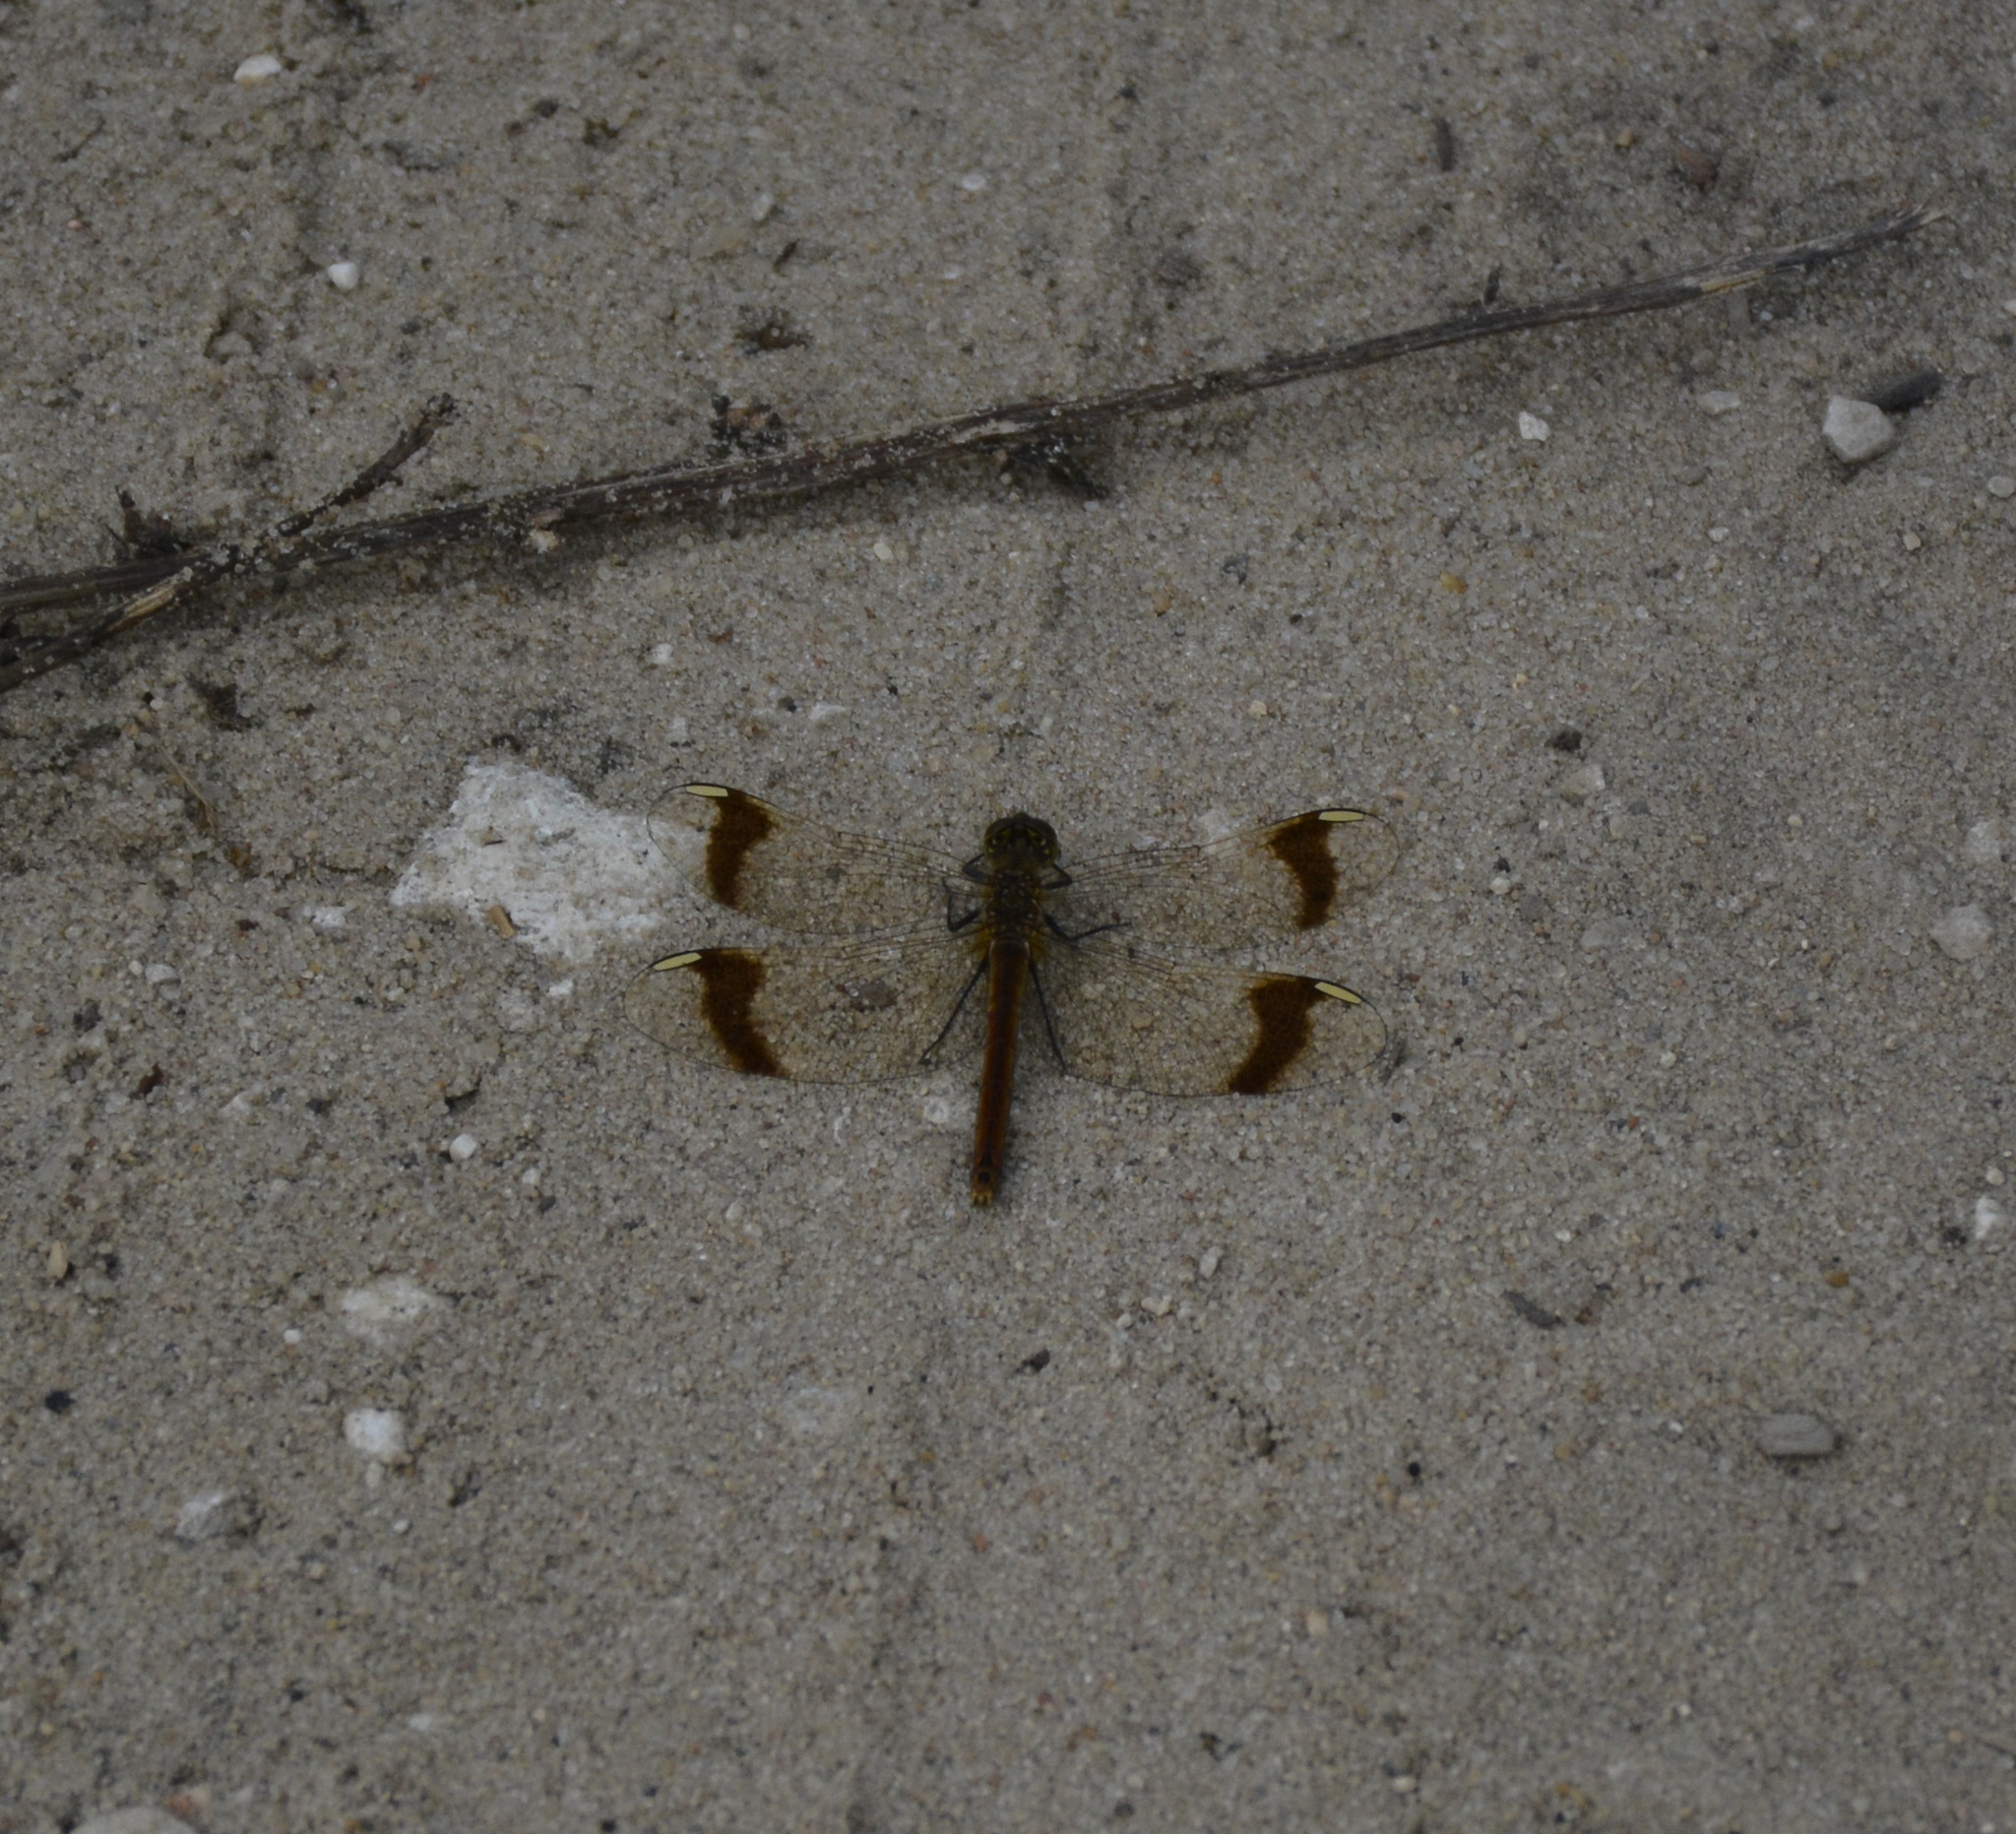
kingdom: Animalia
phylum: Arthropoda
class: Insecta
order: Odonata
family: Libellulidae
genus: Sympetrum
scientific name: Sympetrum pedemontanum
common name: Banded darter
